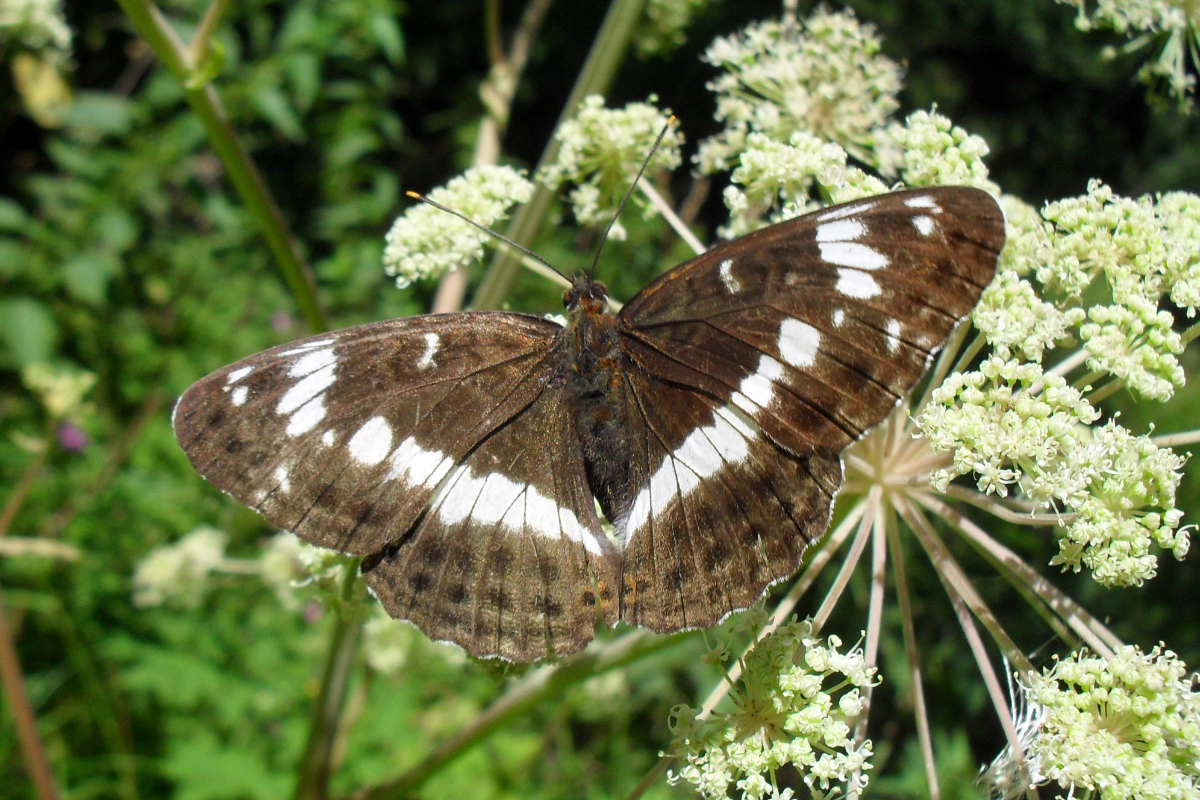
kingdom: Animalia
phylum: Arthropoda
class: Insecta
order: Lepidoptera
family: Nymphalidae
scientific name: Nymphalidae
